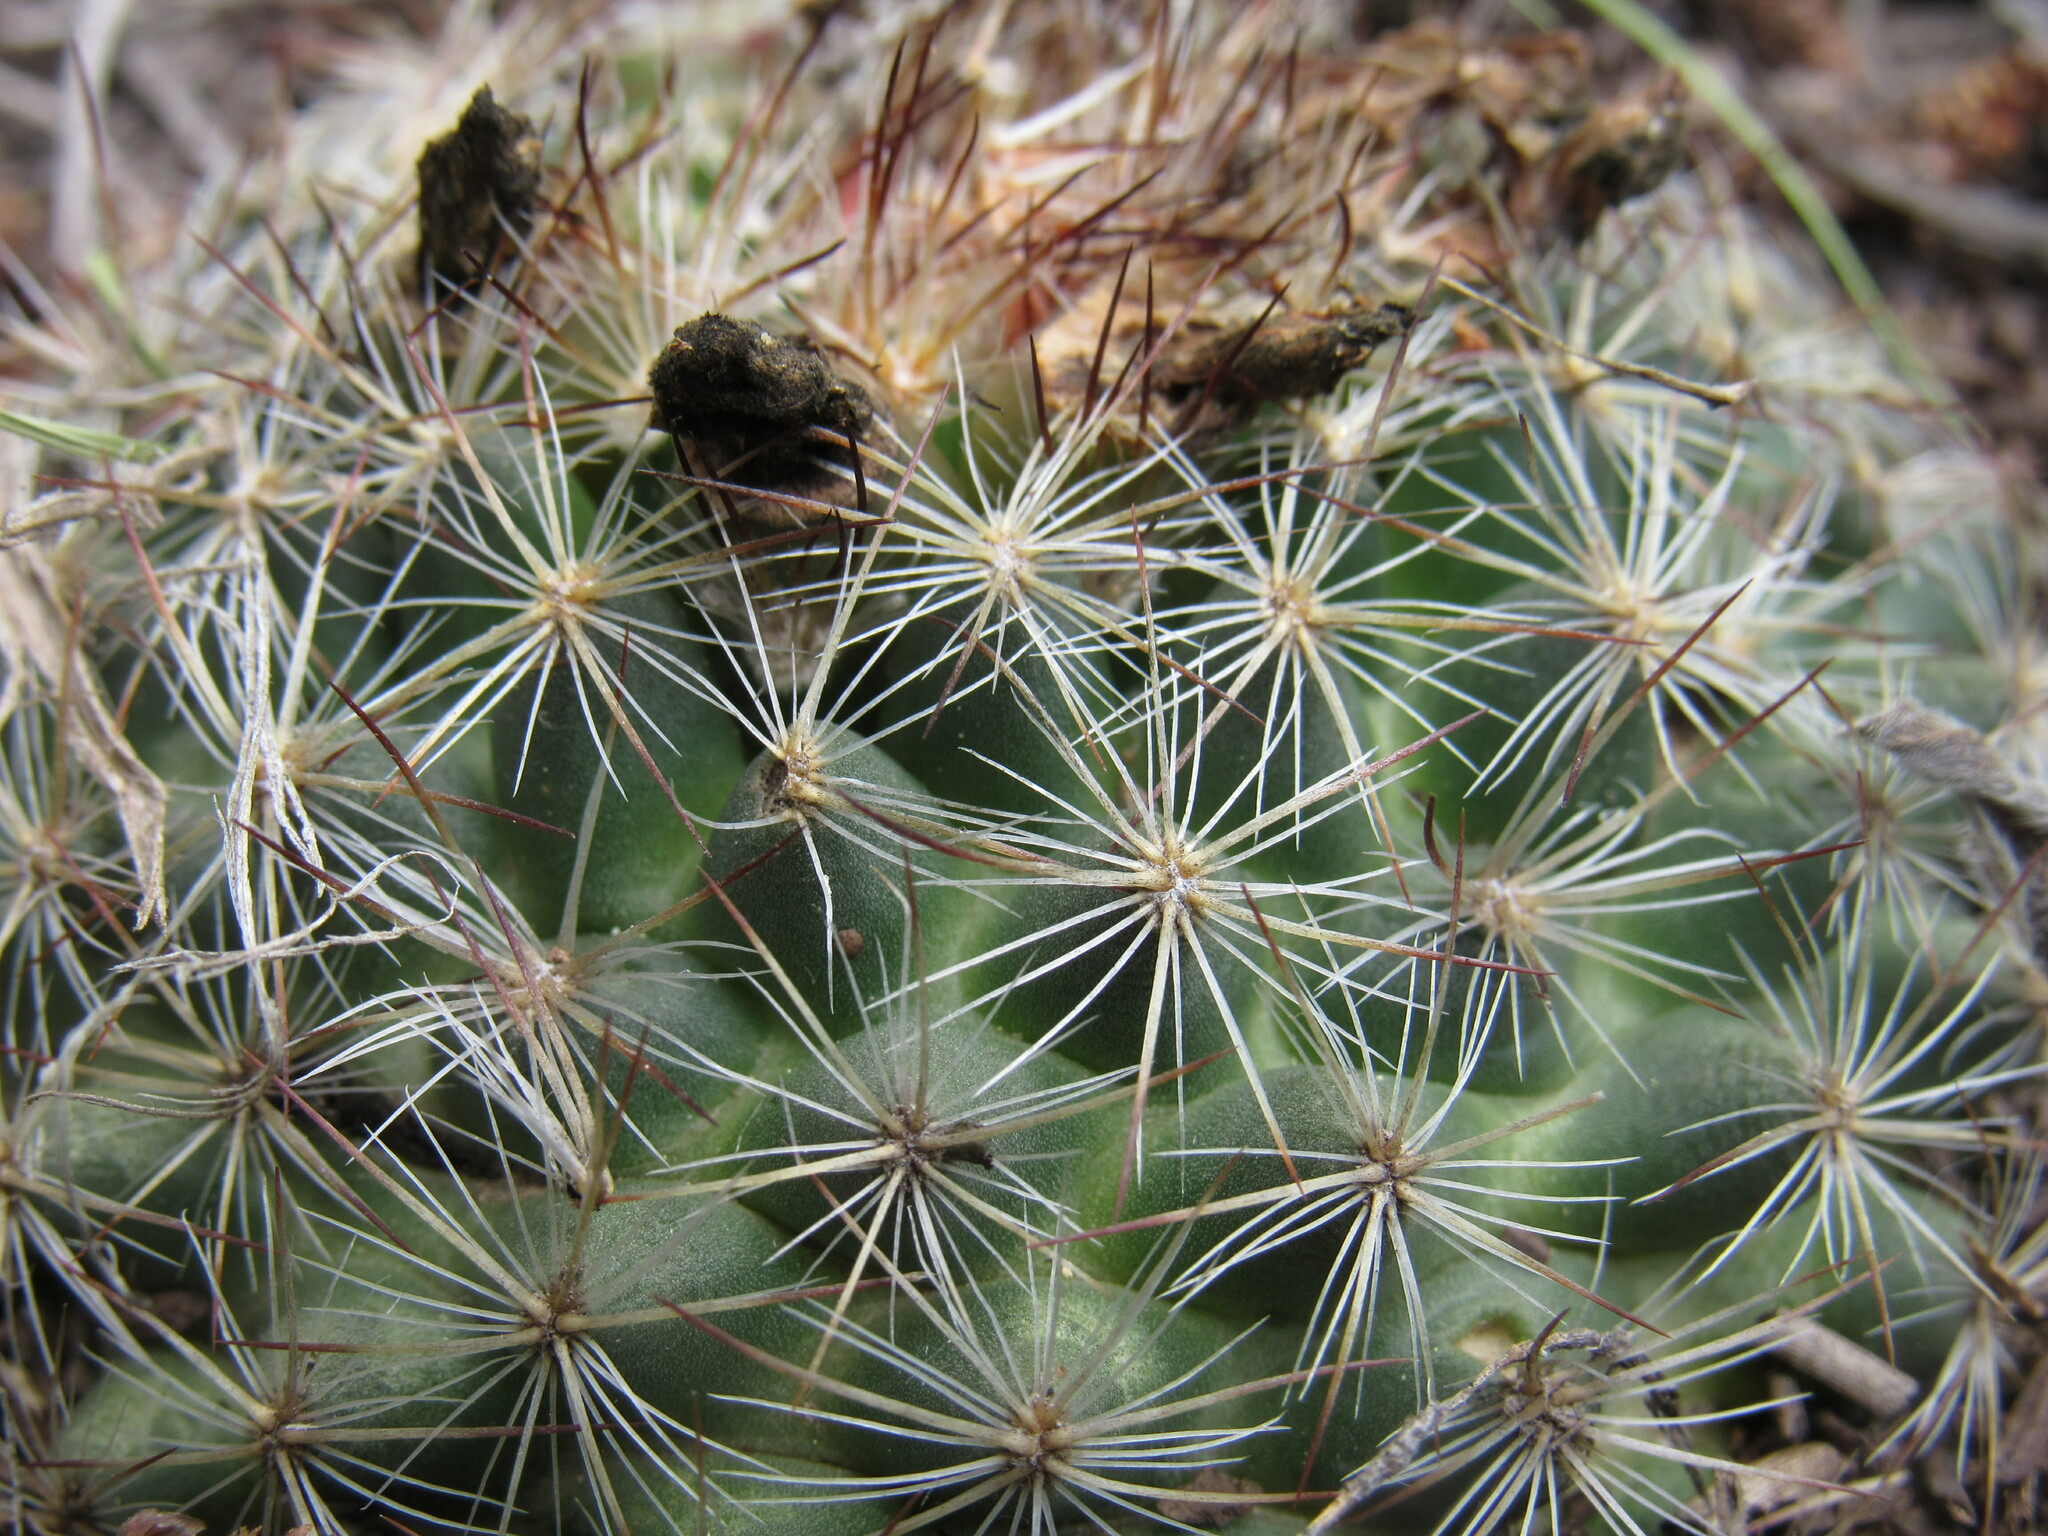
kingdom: Plantae
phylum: Tracheophyta
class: Magnoliopsida
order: Caryophyllales
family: Cactaceae
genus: Pediocactus
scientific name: Pediocactus simpsonii
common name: Simpson's hedgehog cactus
